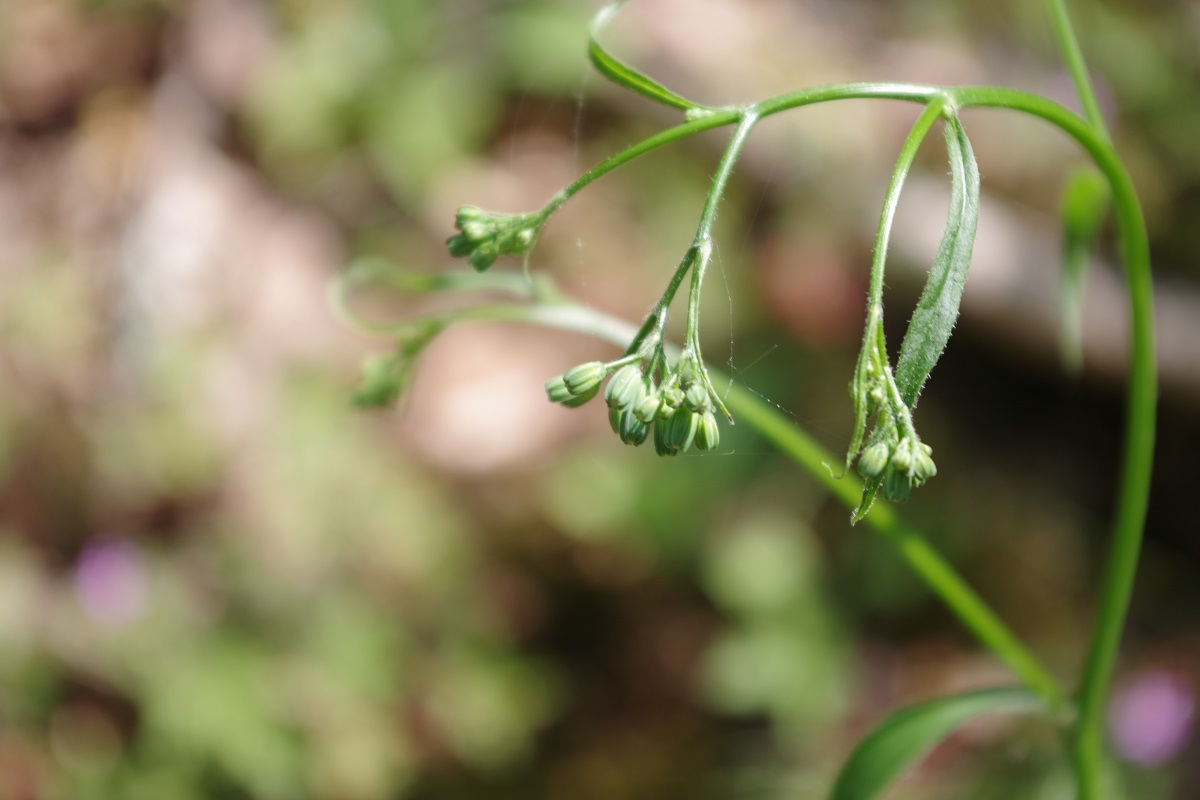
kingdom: Plantae
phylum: Tracheophyta
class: Magnoliopsida
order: Asterales
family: Asteraceae
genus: Lapsana
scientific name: Lapsana communis
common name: Nipplewort
